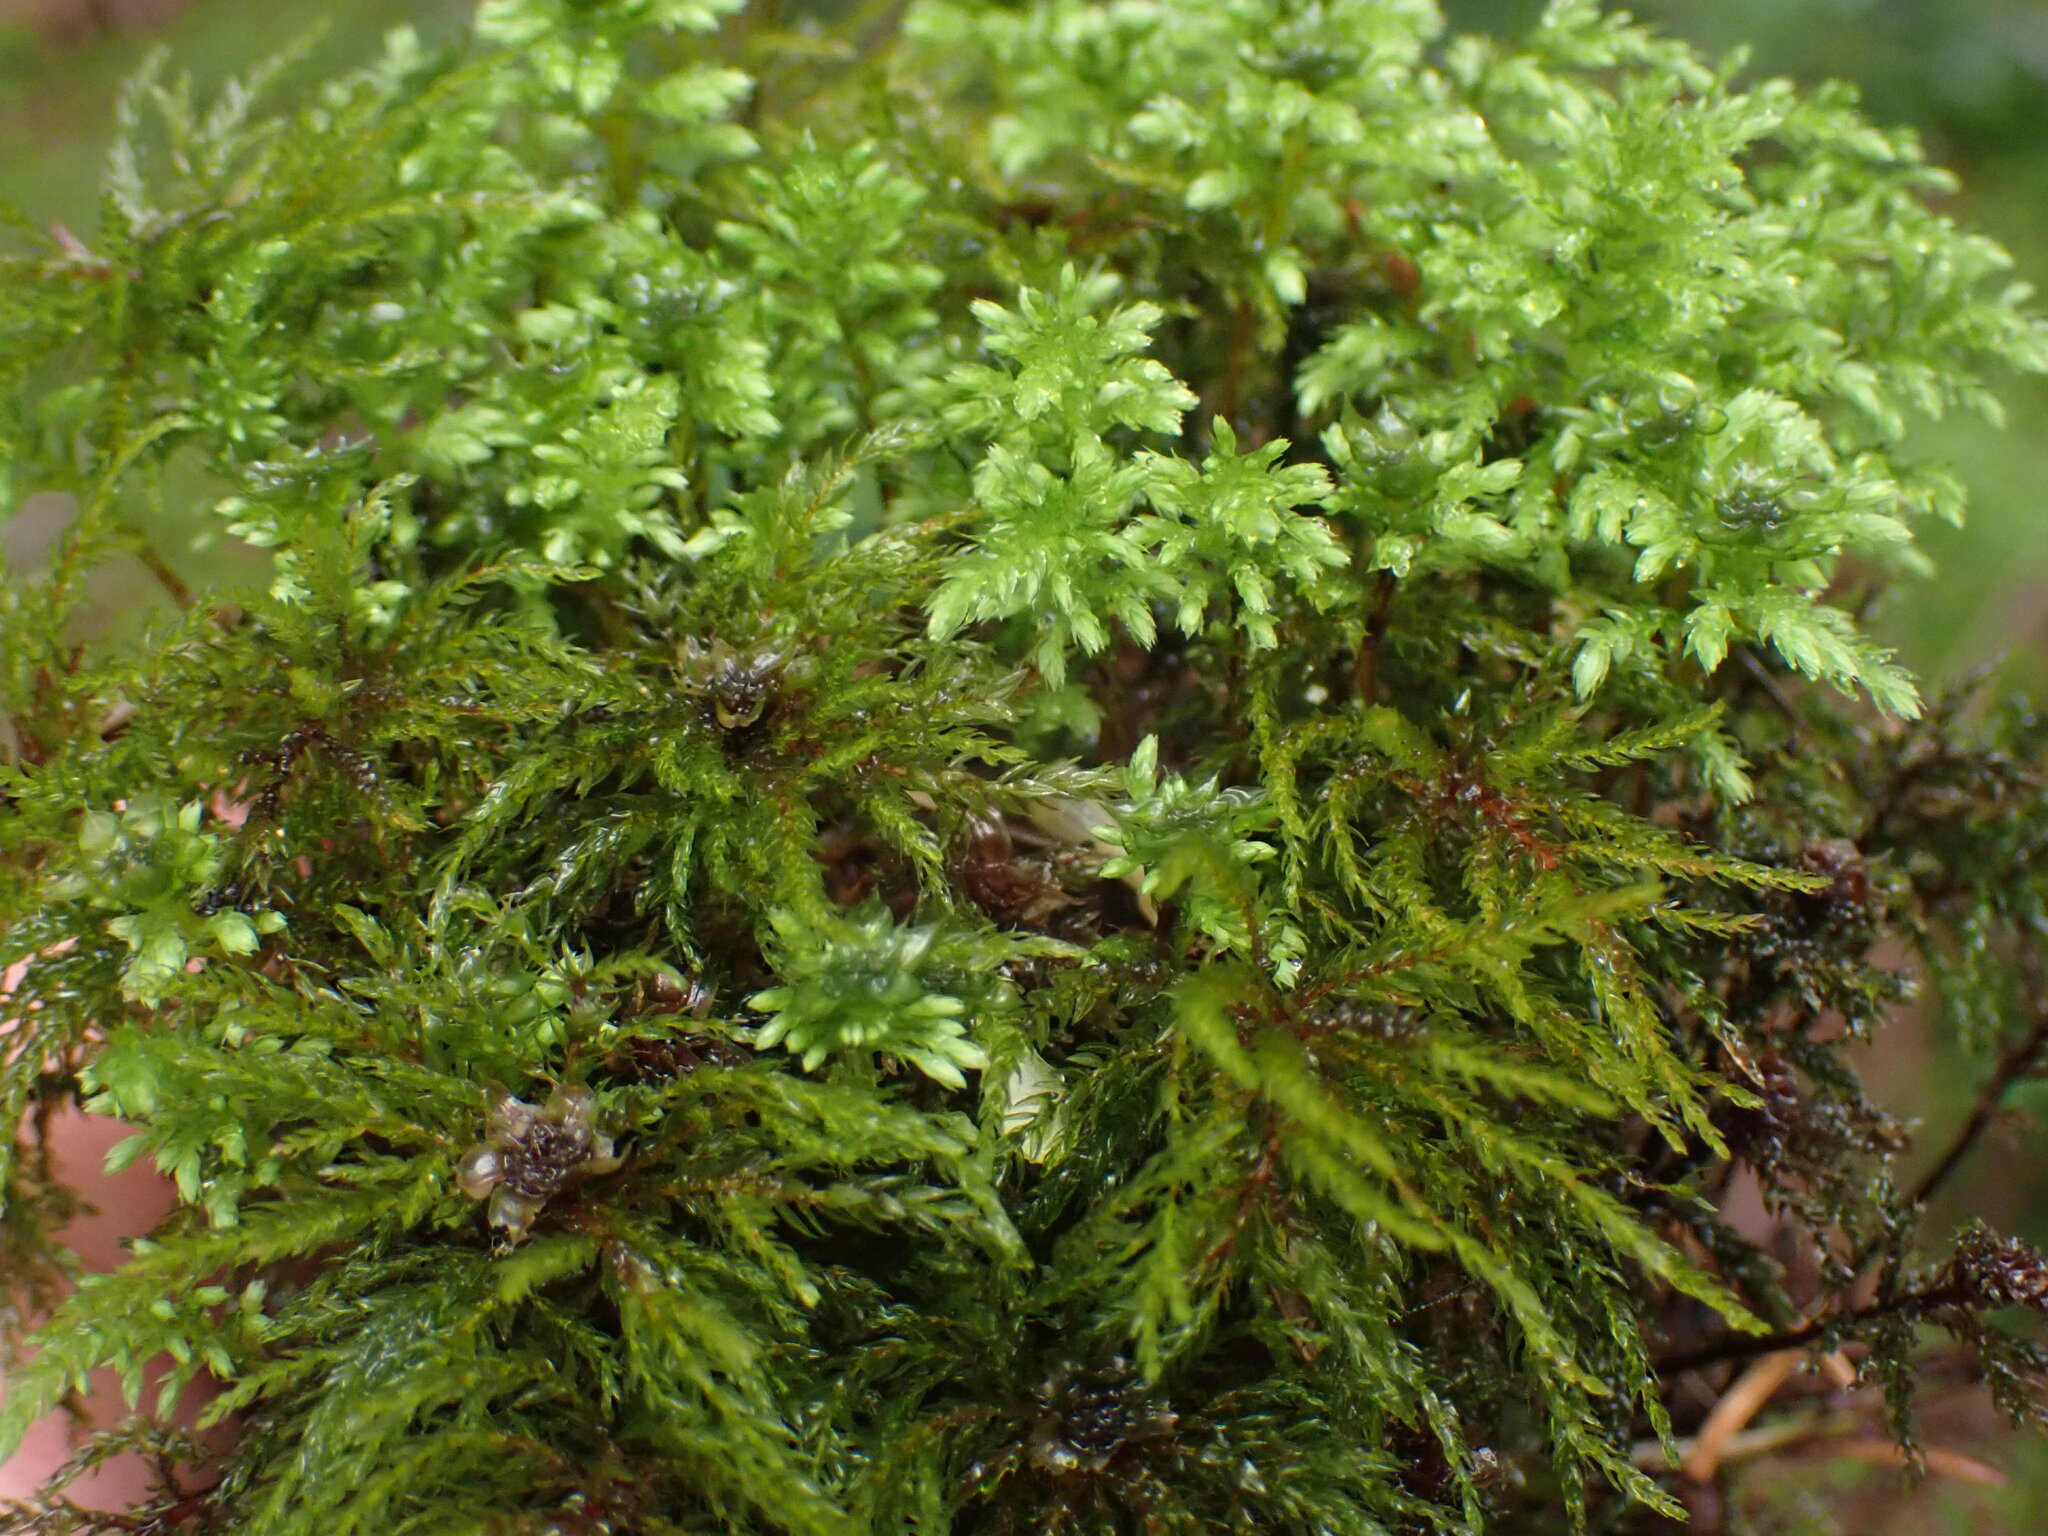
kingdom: Plantae
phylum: Bryophyta
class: Bryopsida
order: Bryales
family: Mniaceae
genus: Leucolepis
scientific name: Leucolepis acanthoneura
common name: Leucolepis umbrella moss
